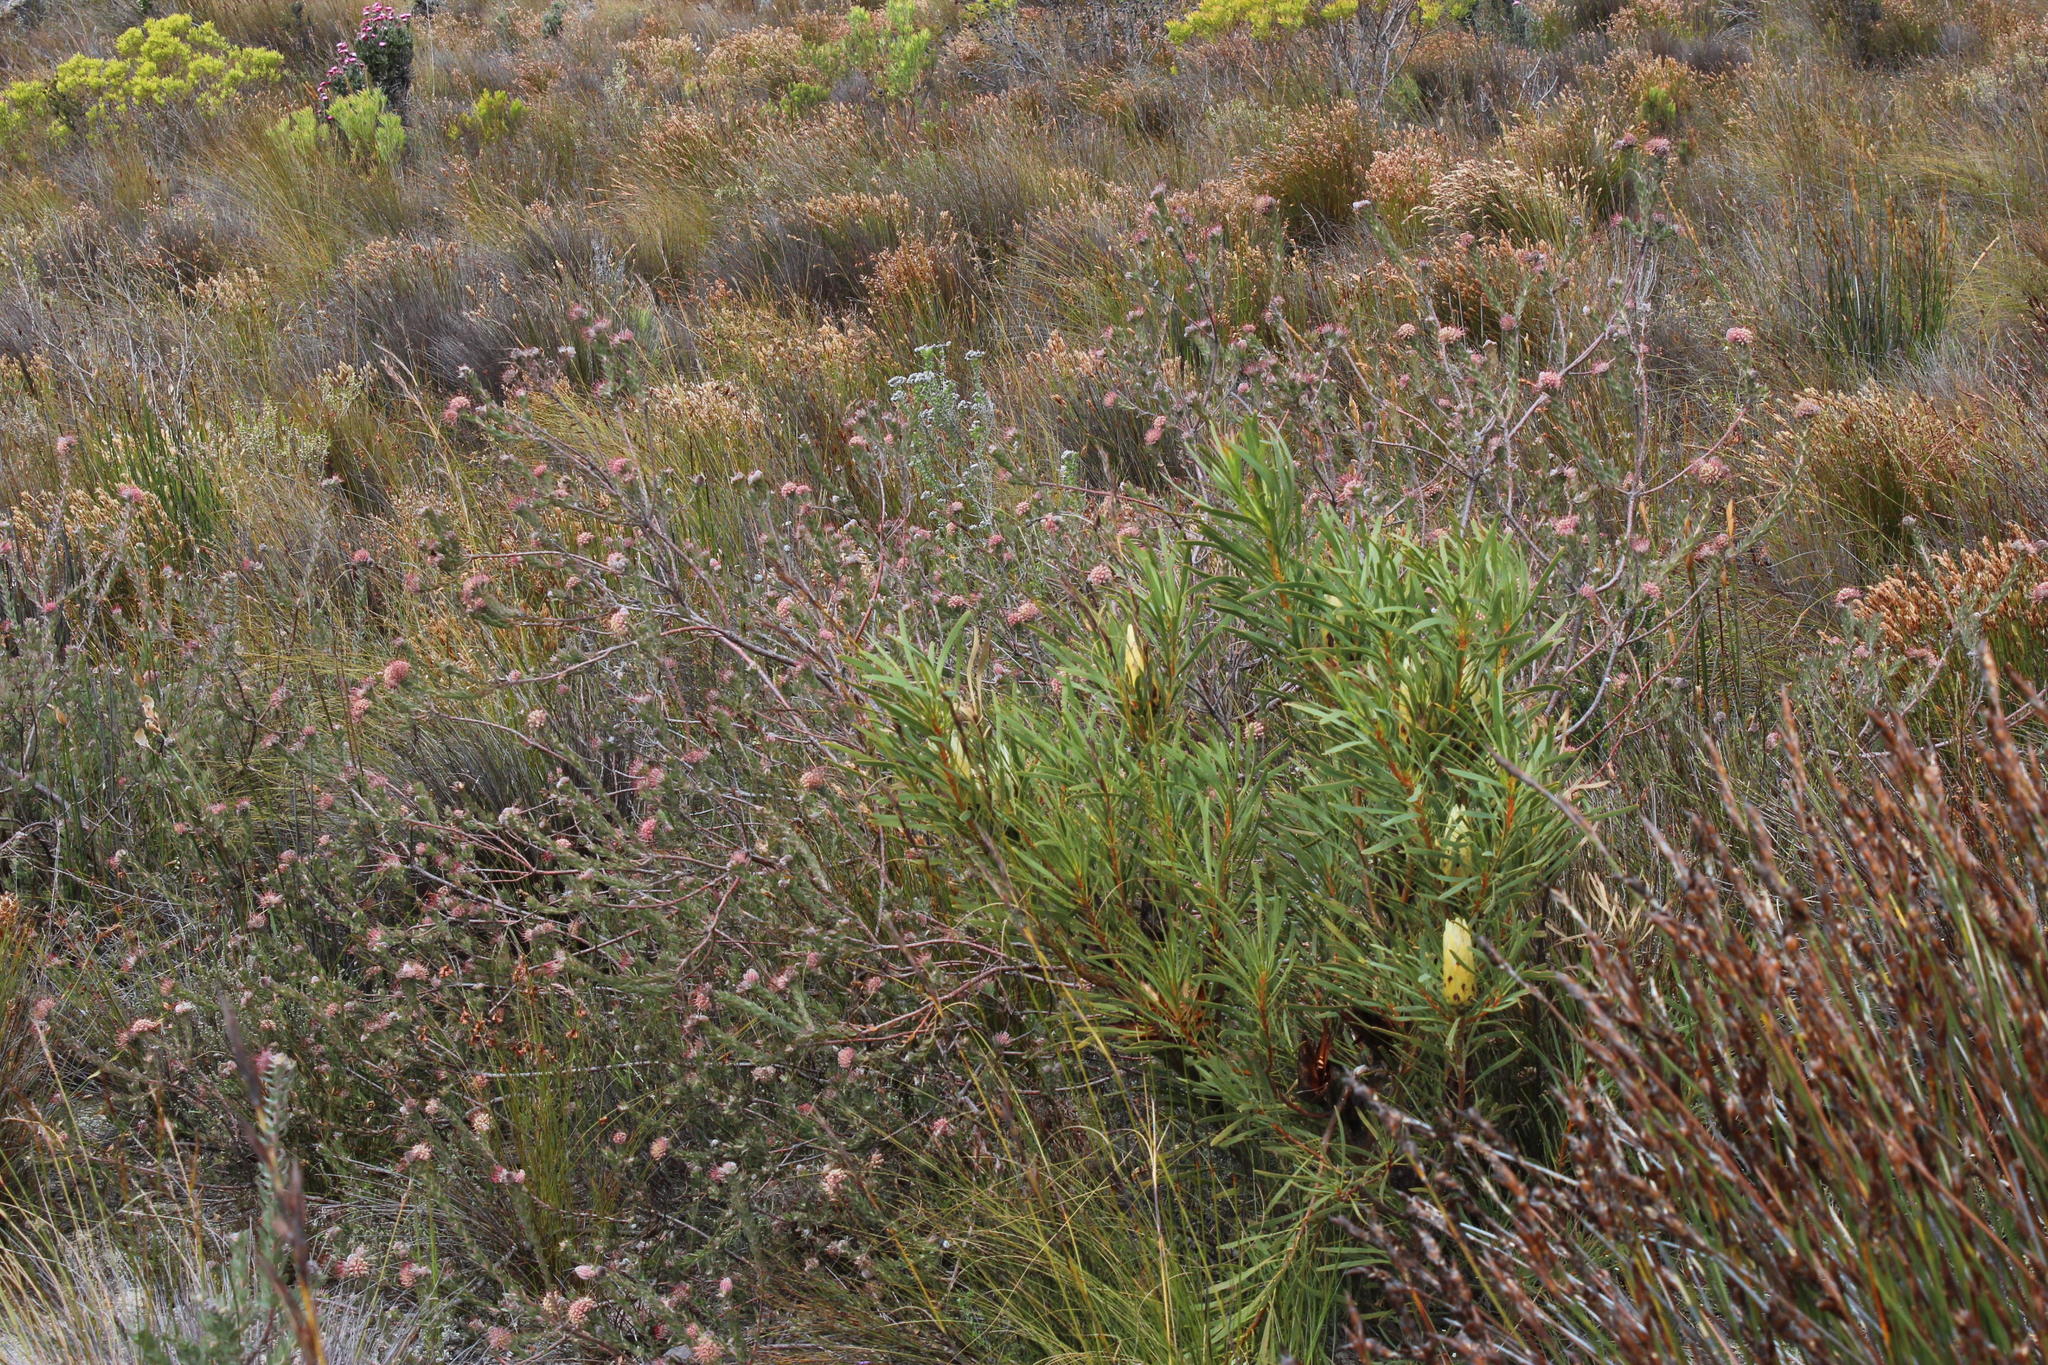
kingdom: Plantae
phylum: Tracheophyta
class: Magnoliopsida
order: Proteales
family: Proteaceae
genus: Protea
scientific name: Protea repens
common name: Sugarbush
